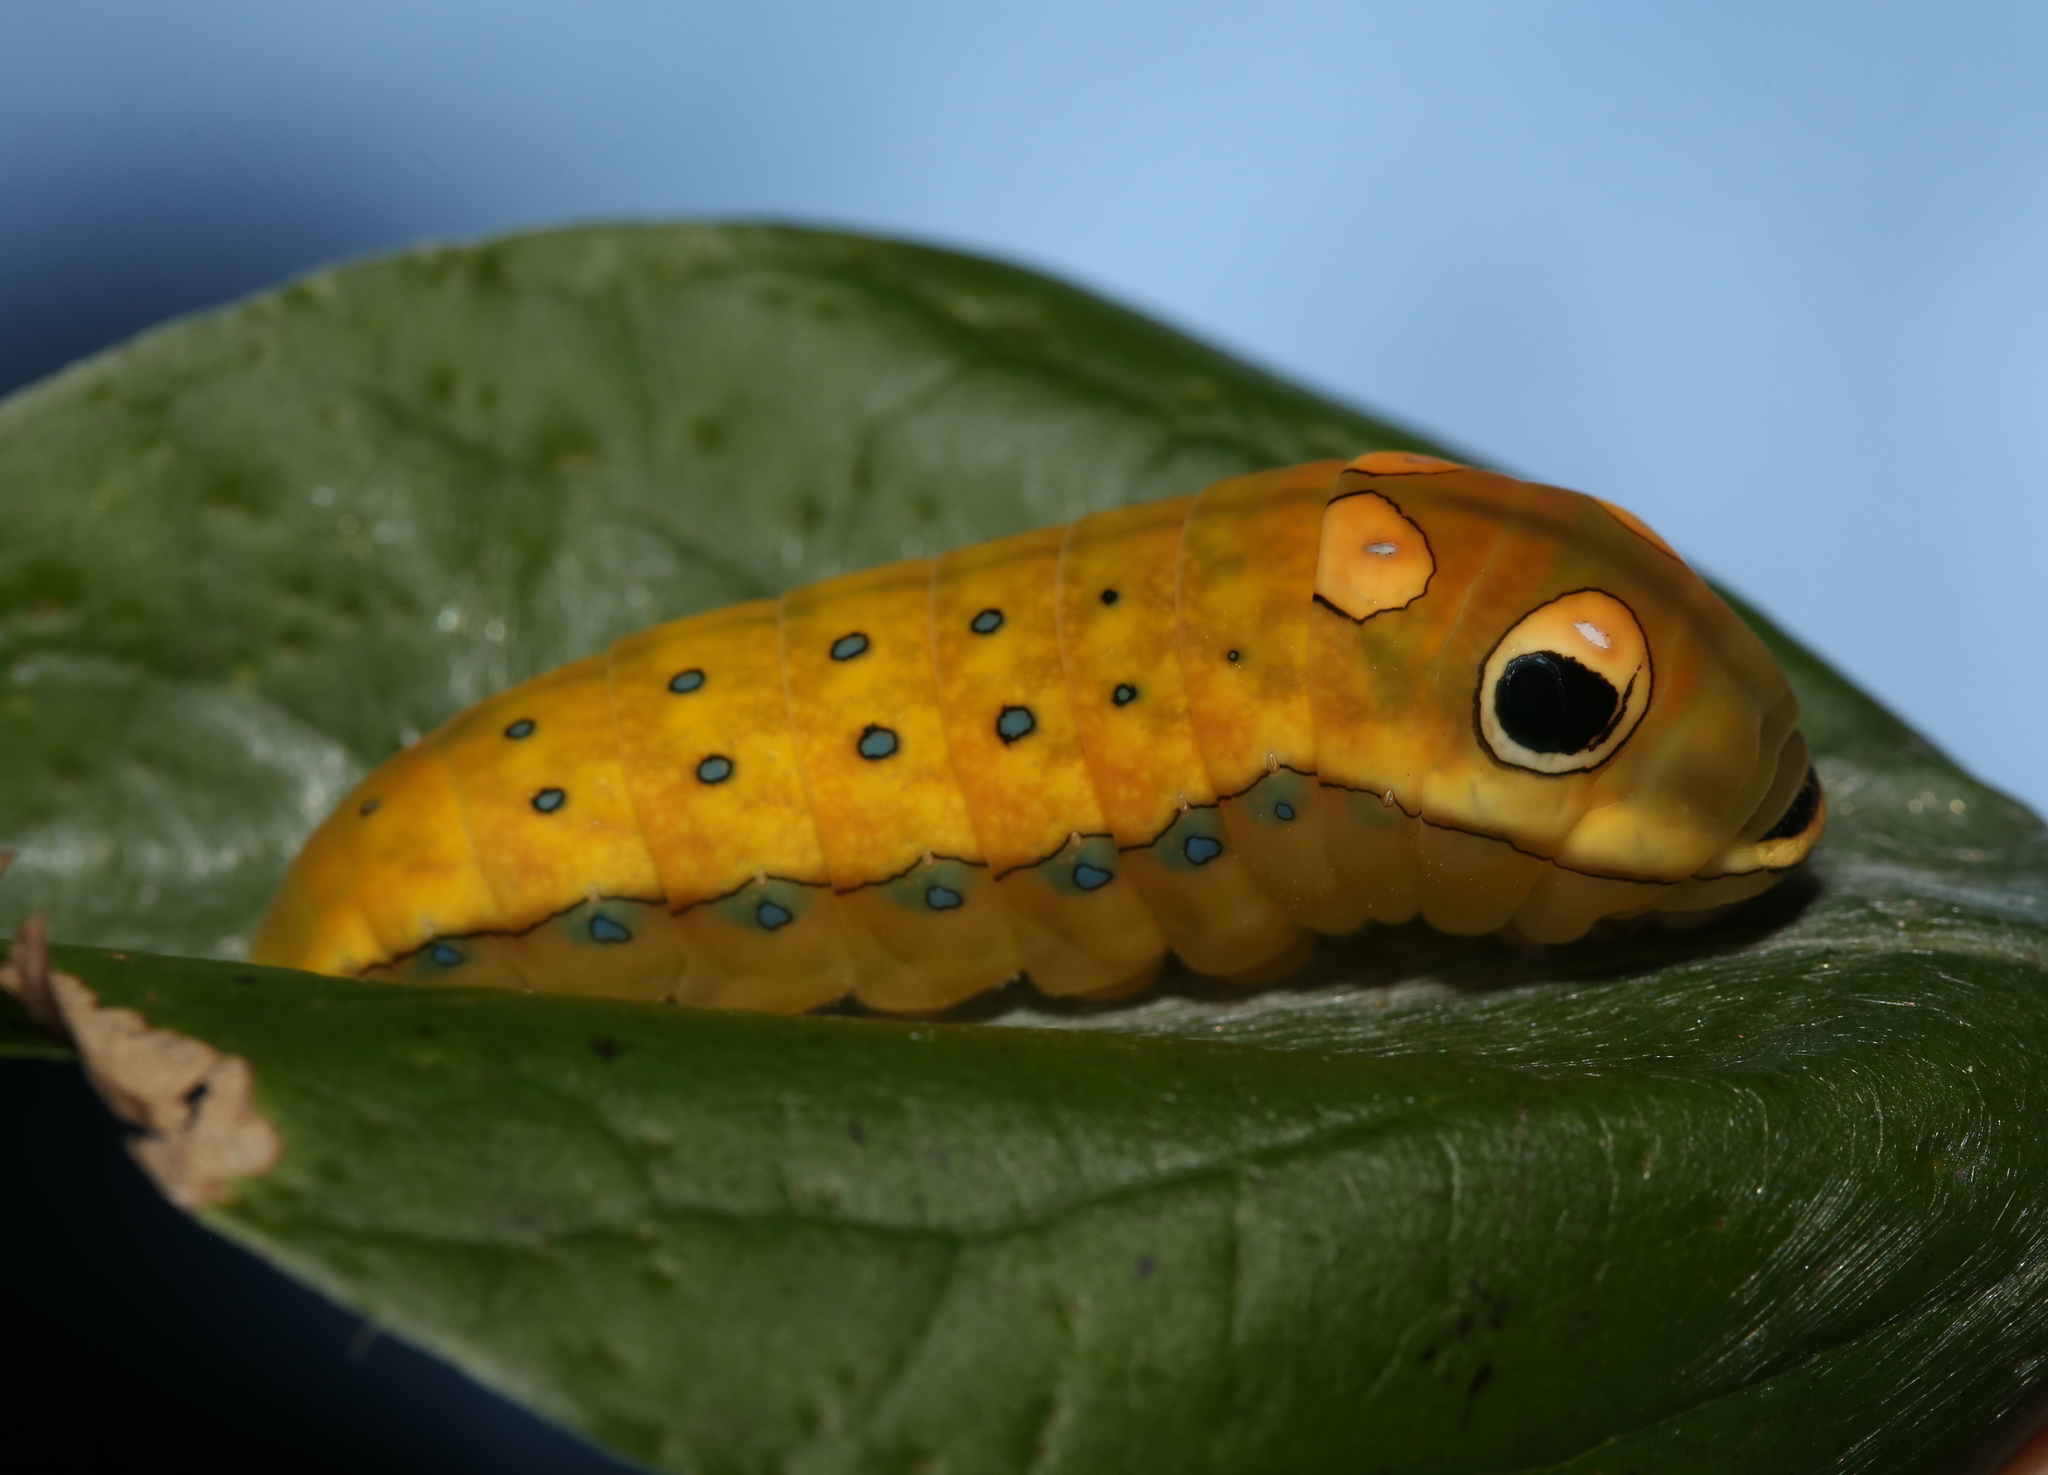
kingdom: Animalia
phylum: Arthropoda
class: Insecta
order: Lepidoptera
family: Papilionidae
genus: Papilio
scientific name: Papilio troilus
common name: Spicebush swallowtail
